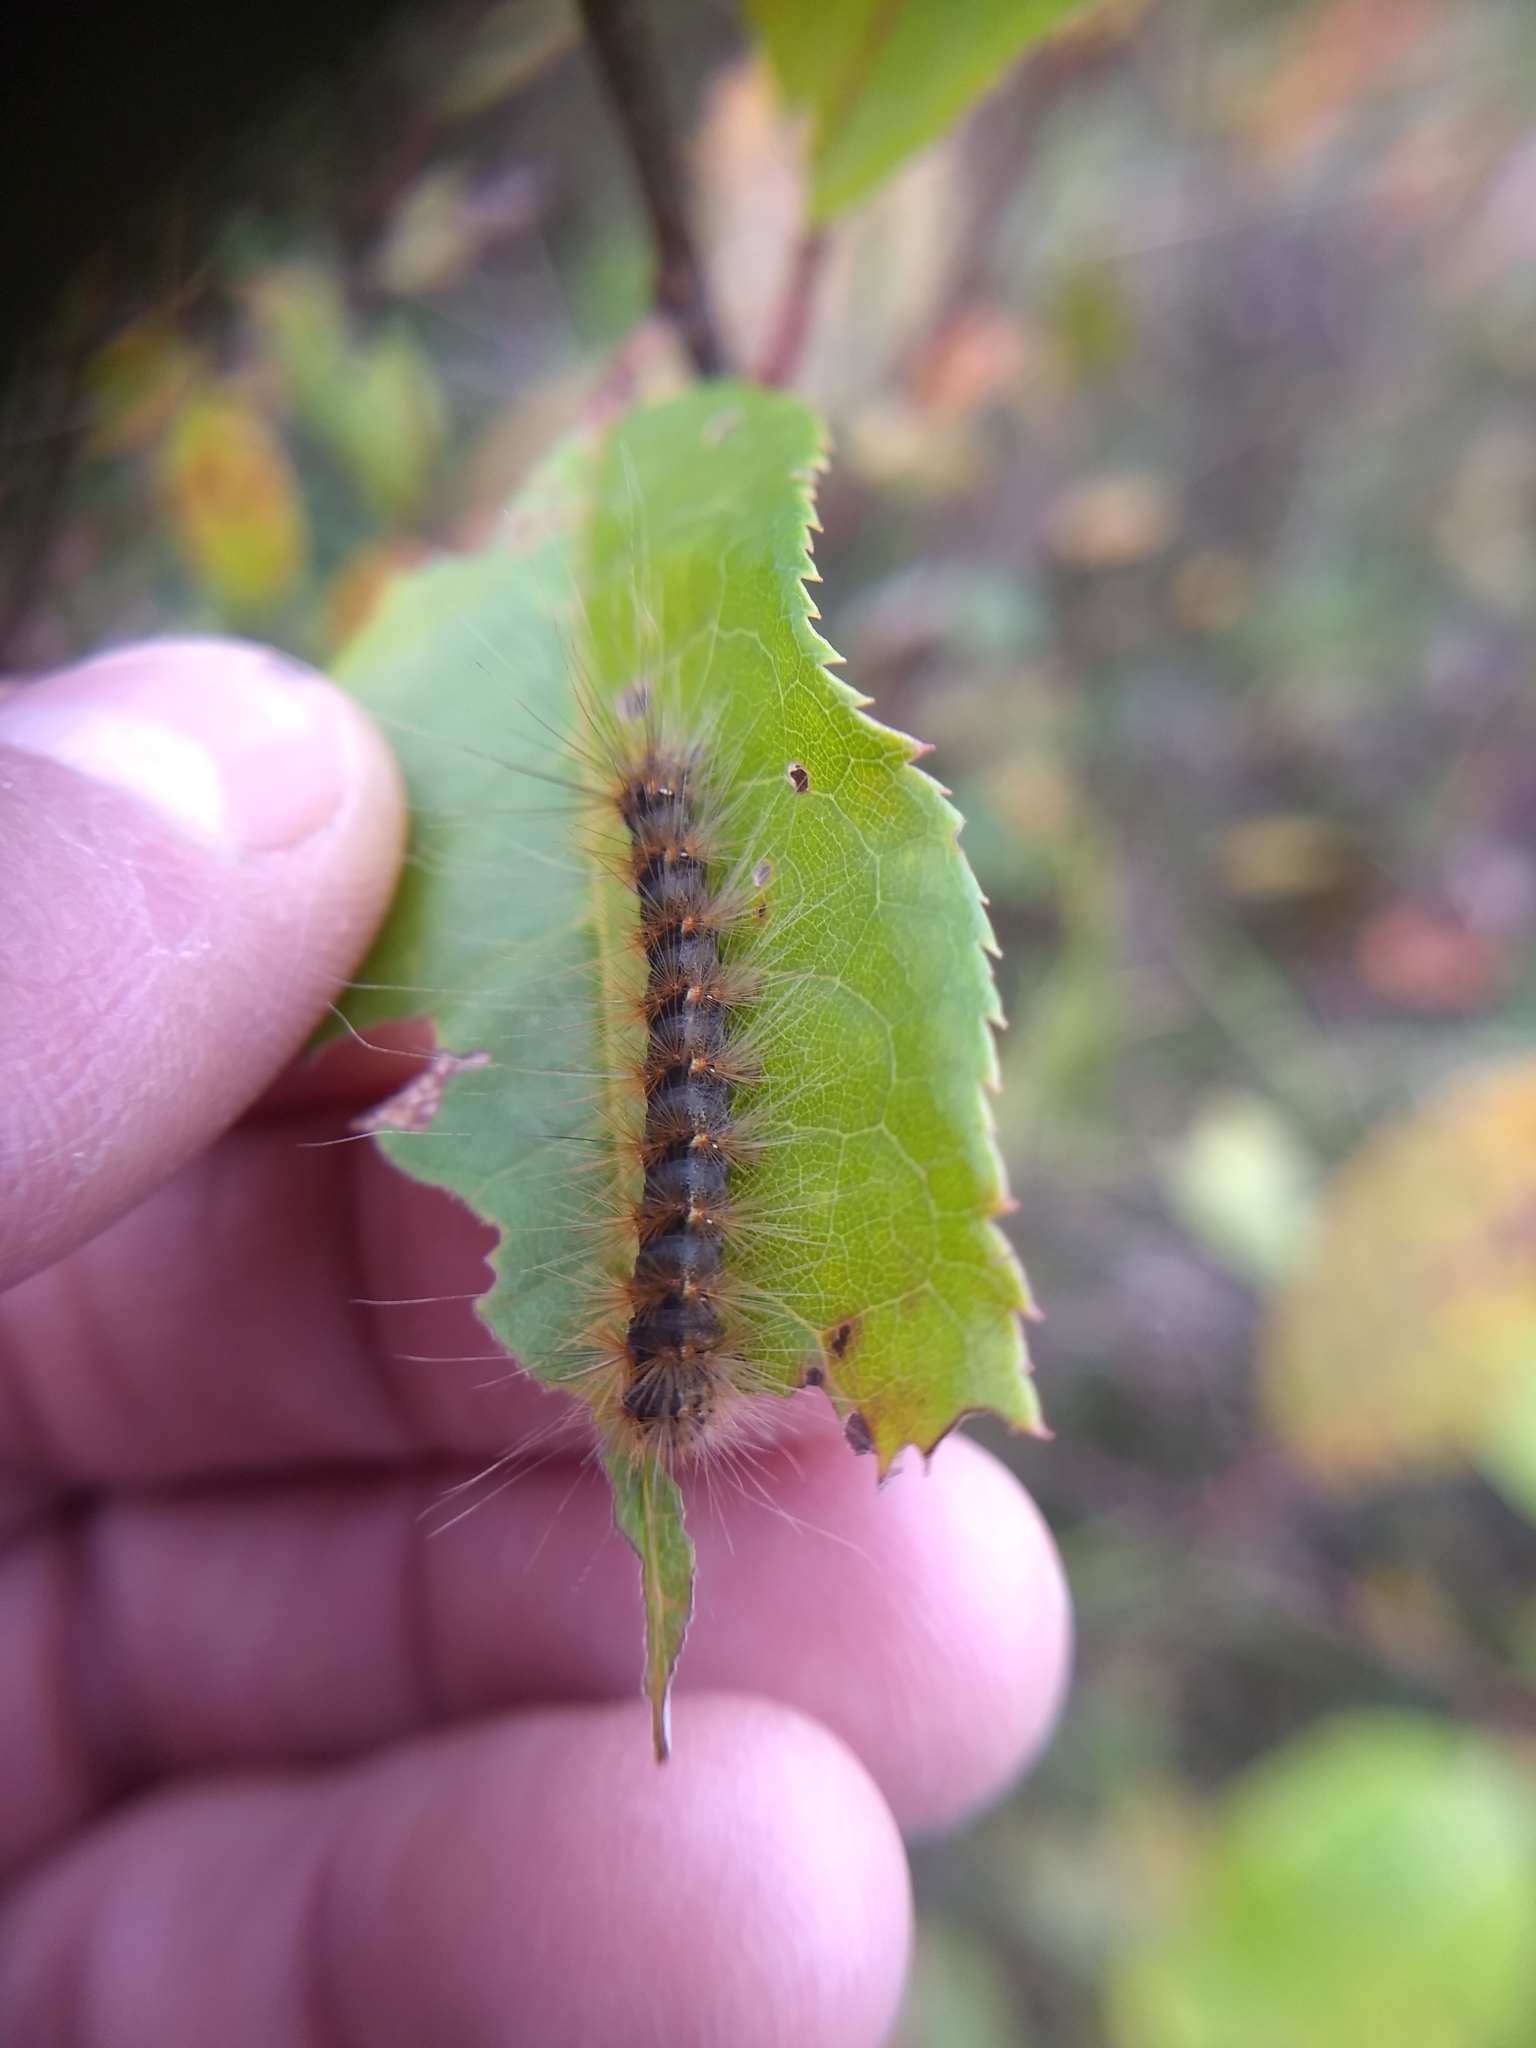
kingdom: Animalia
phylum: Arthropoda
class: Insecta
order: Lepidoptera
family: Erebidae
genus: Hyphantria
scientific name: Hyphantria cunea
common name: American white moth
